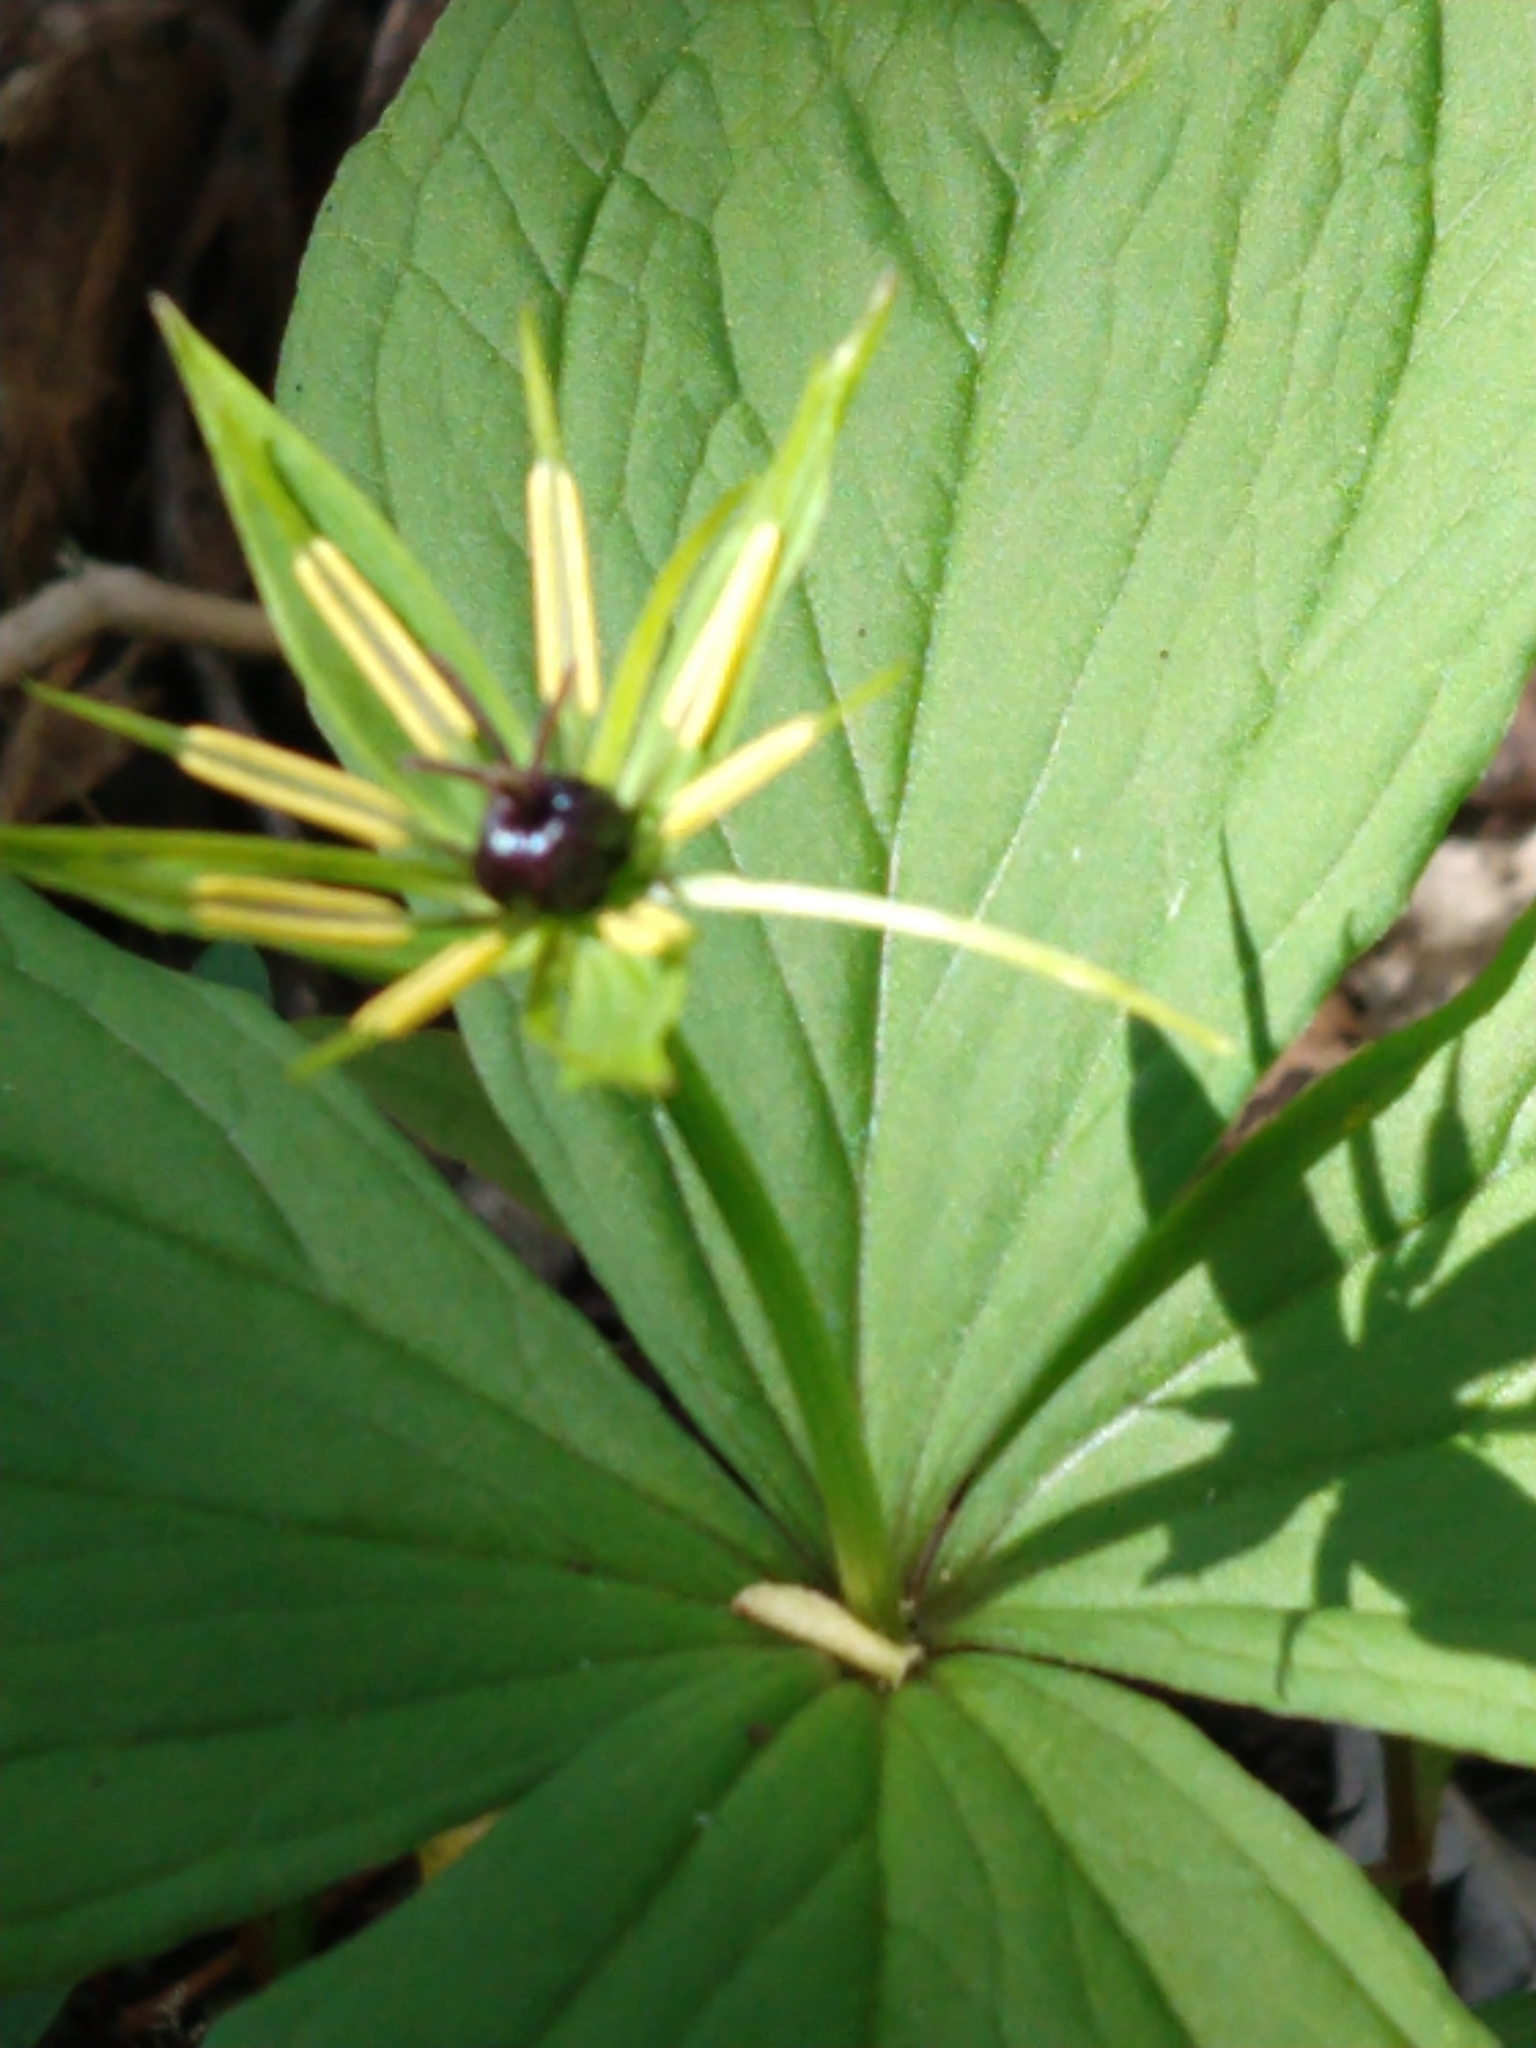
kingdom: Plantae
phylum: Tracheophyta
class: Liliopsida
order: Liliales
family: Melanthiaceae
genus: Paris
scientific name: Paris quadrifolia
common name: Herb-paris
